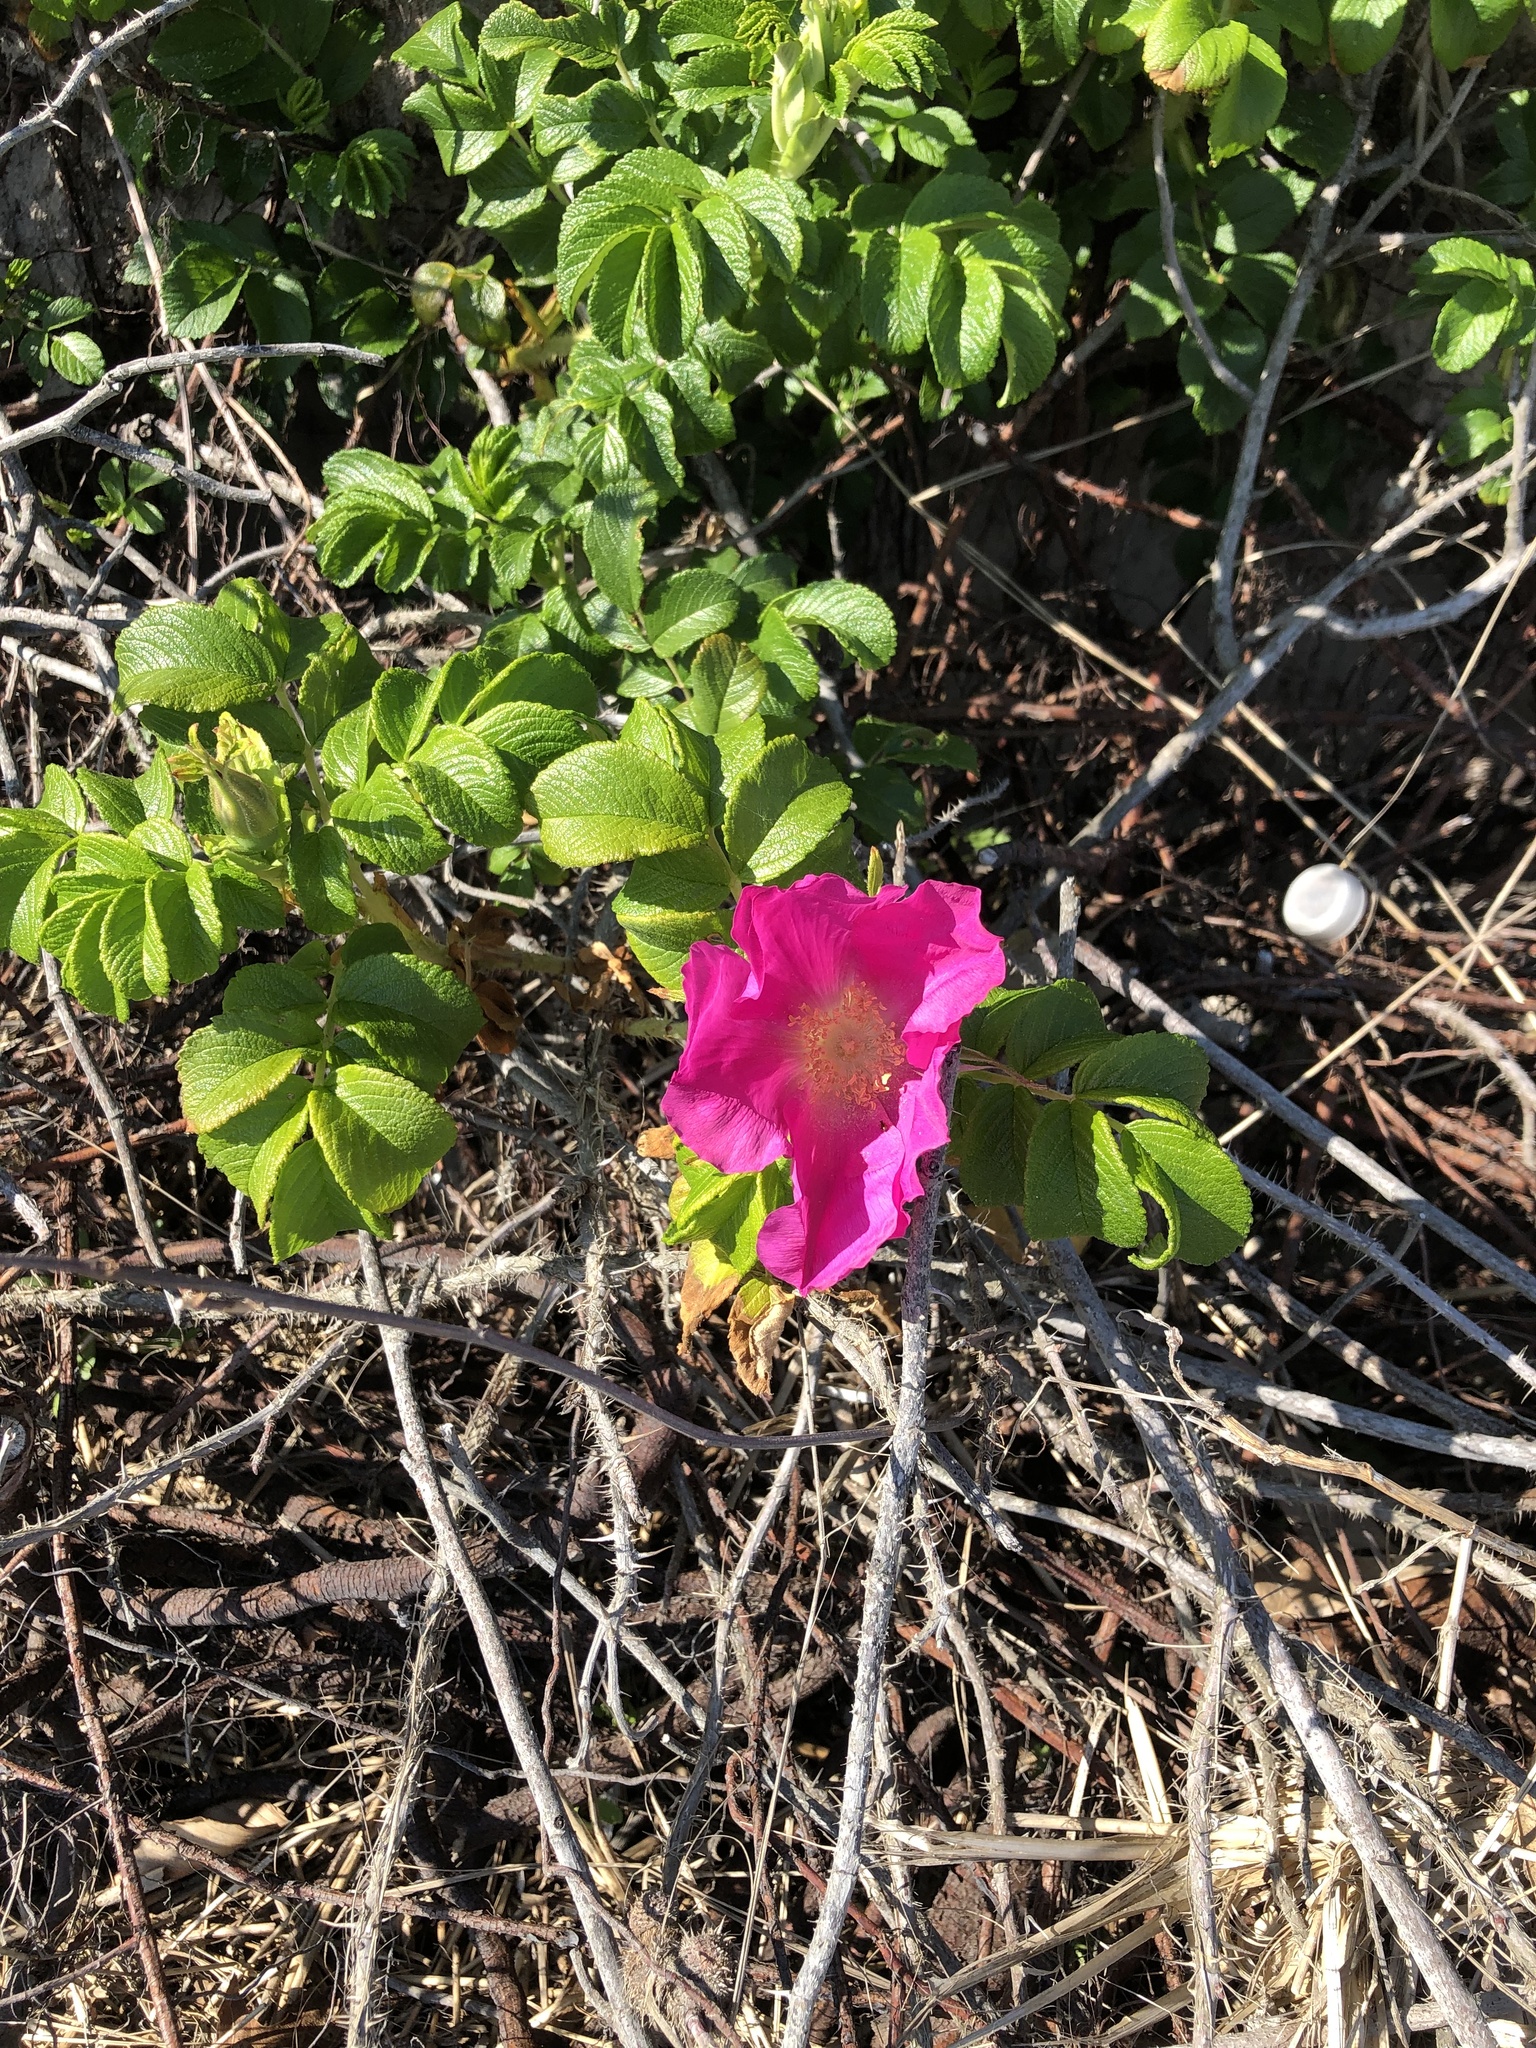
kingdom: Plantae
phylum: Tracheophyta
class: Magnoliopsida
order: Rosales
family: Rosaceae
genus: Rosa
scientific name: Rosa rugosa
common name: Japanese rose
